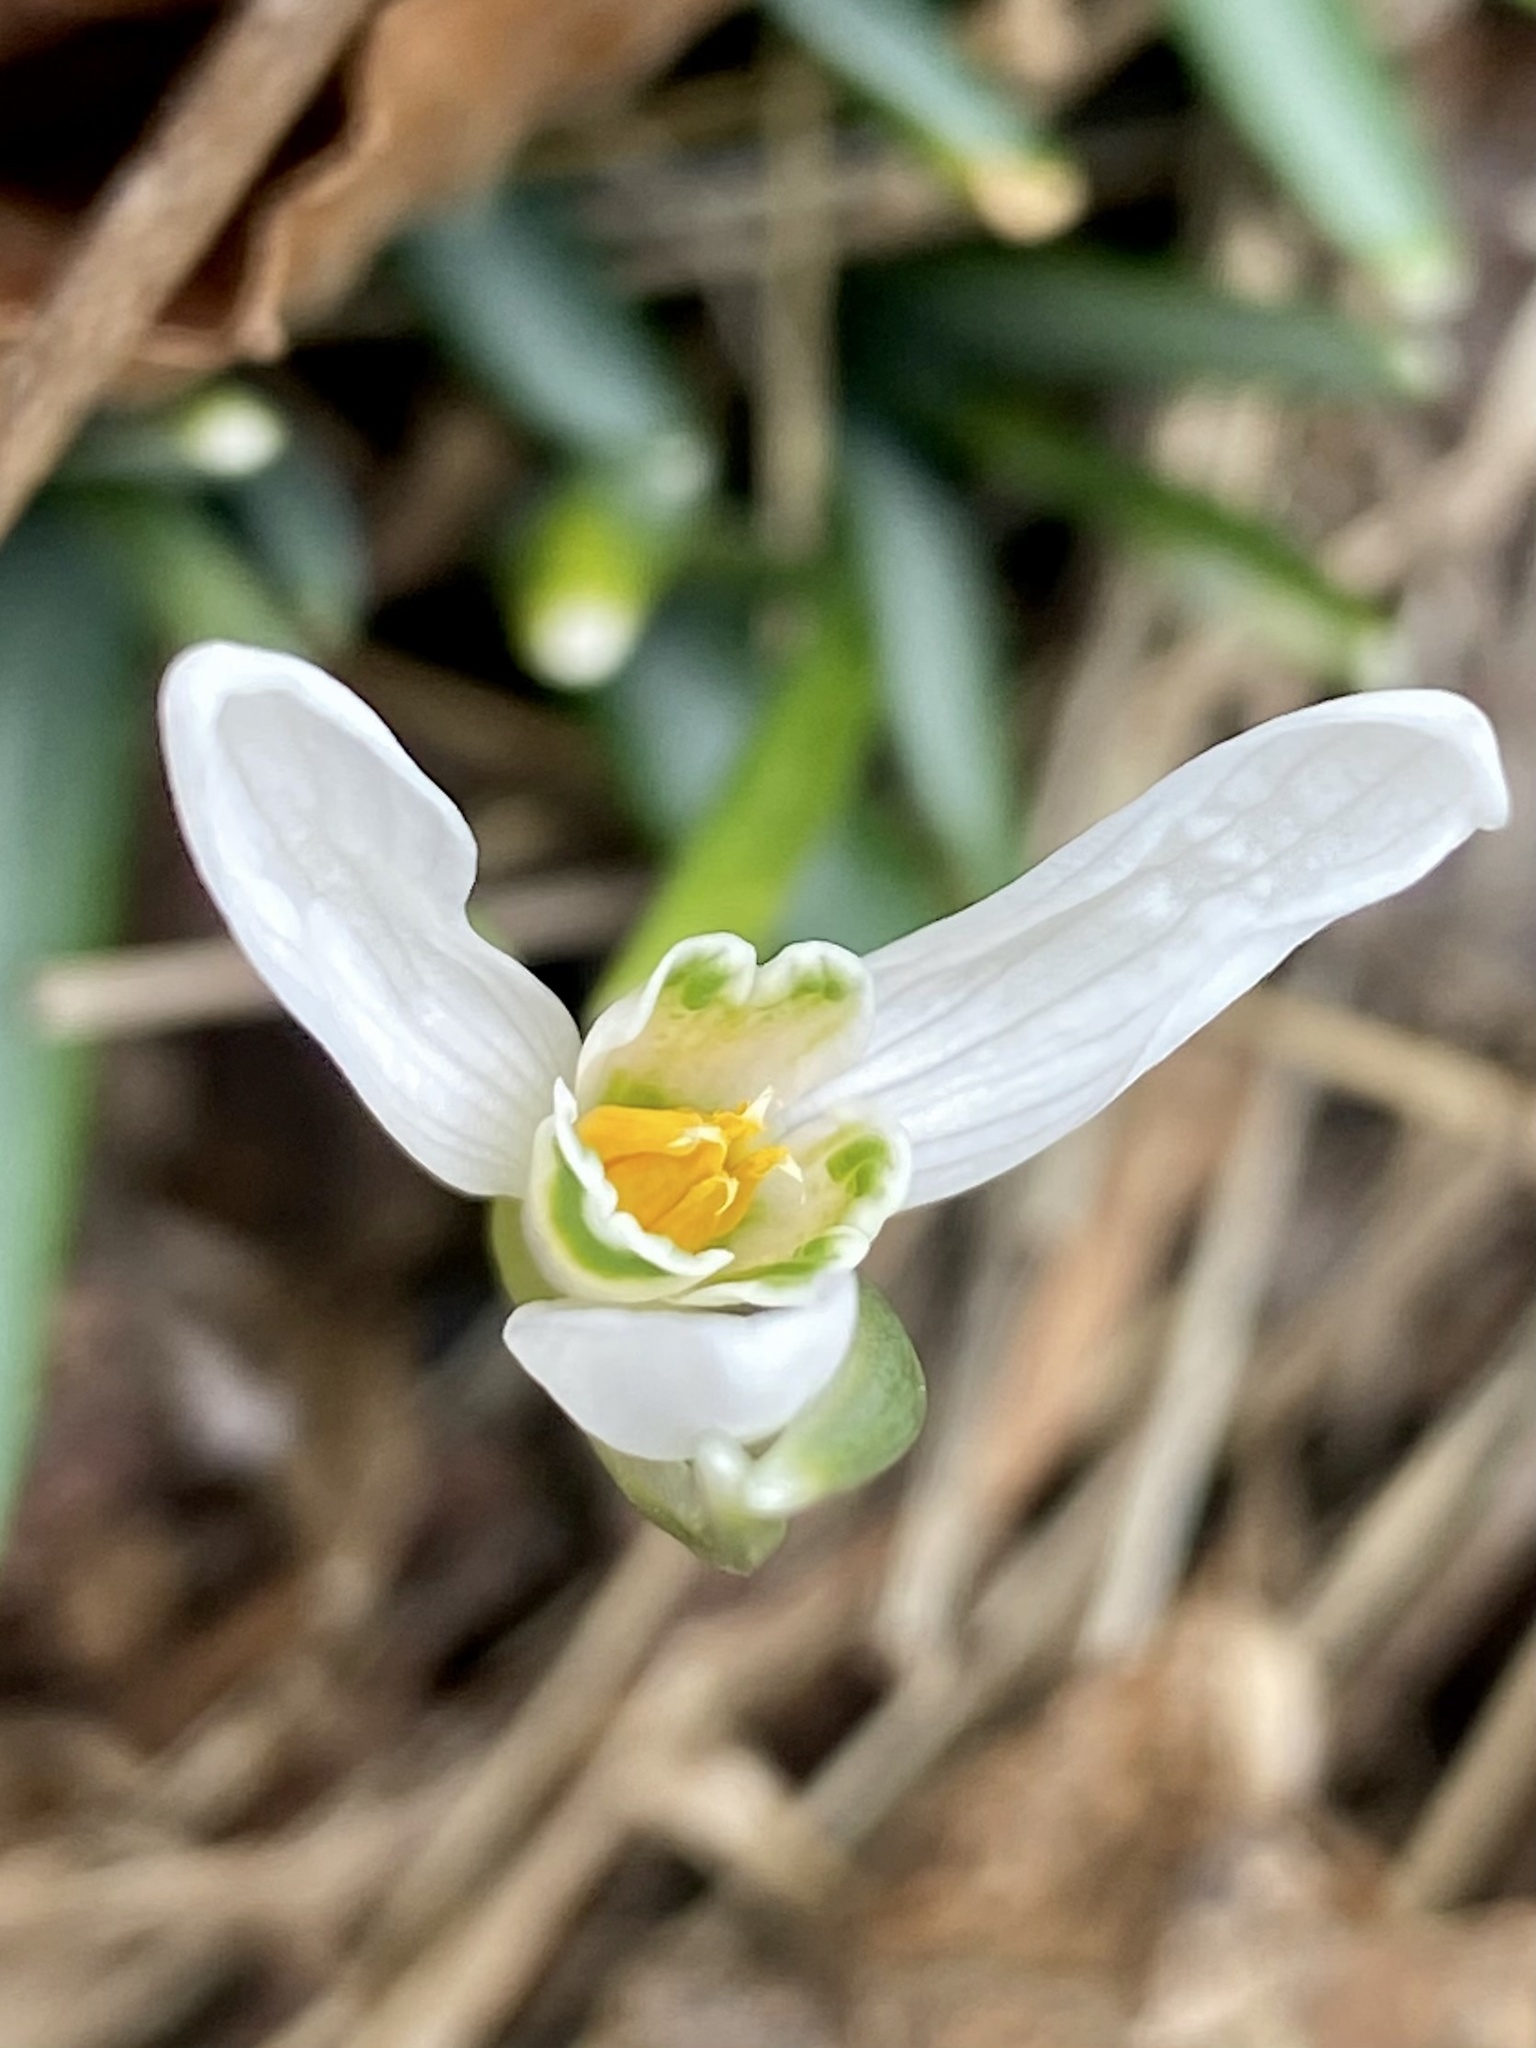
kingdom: Plantae
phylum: Tracheophyta
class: Liliopsida
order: Asparagales
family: Amaryllidaceae
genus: Galanthus
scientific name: Galanthus nivalis
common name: Snowdrop
